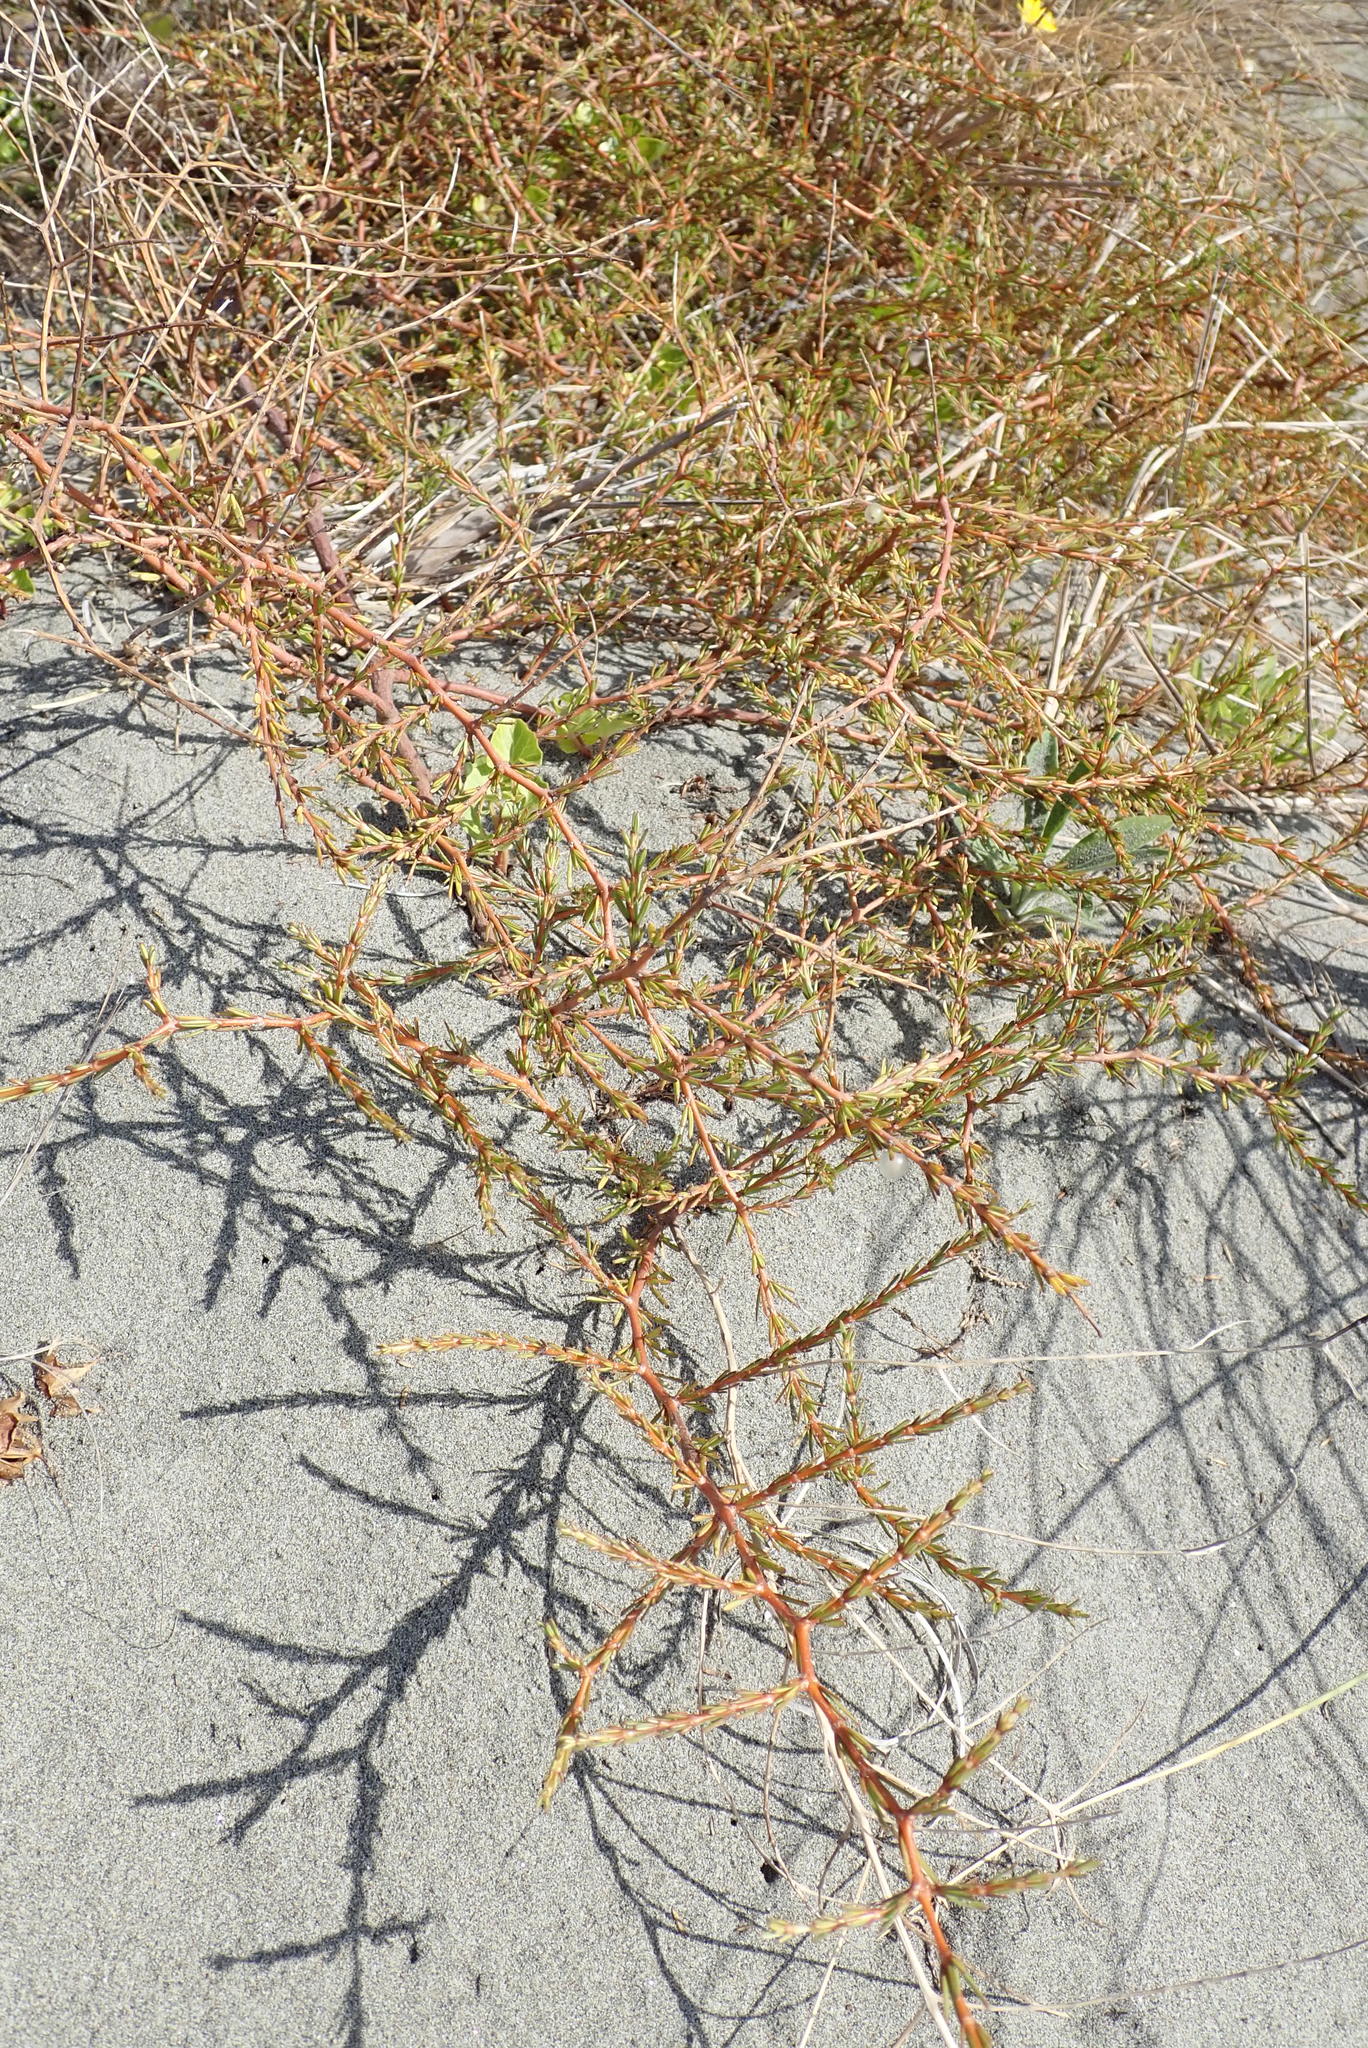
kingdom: Plantae
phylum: Tracheophyta
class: Magnoliopsida
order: Gentianales
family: Rubiaceae
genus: Coprosma
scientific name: Coprosma acerosa
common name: Sand coprosma
